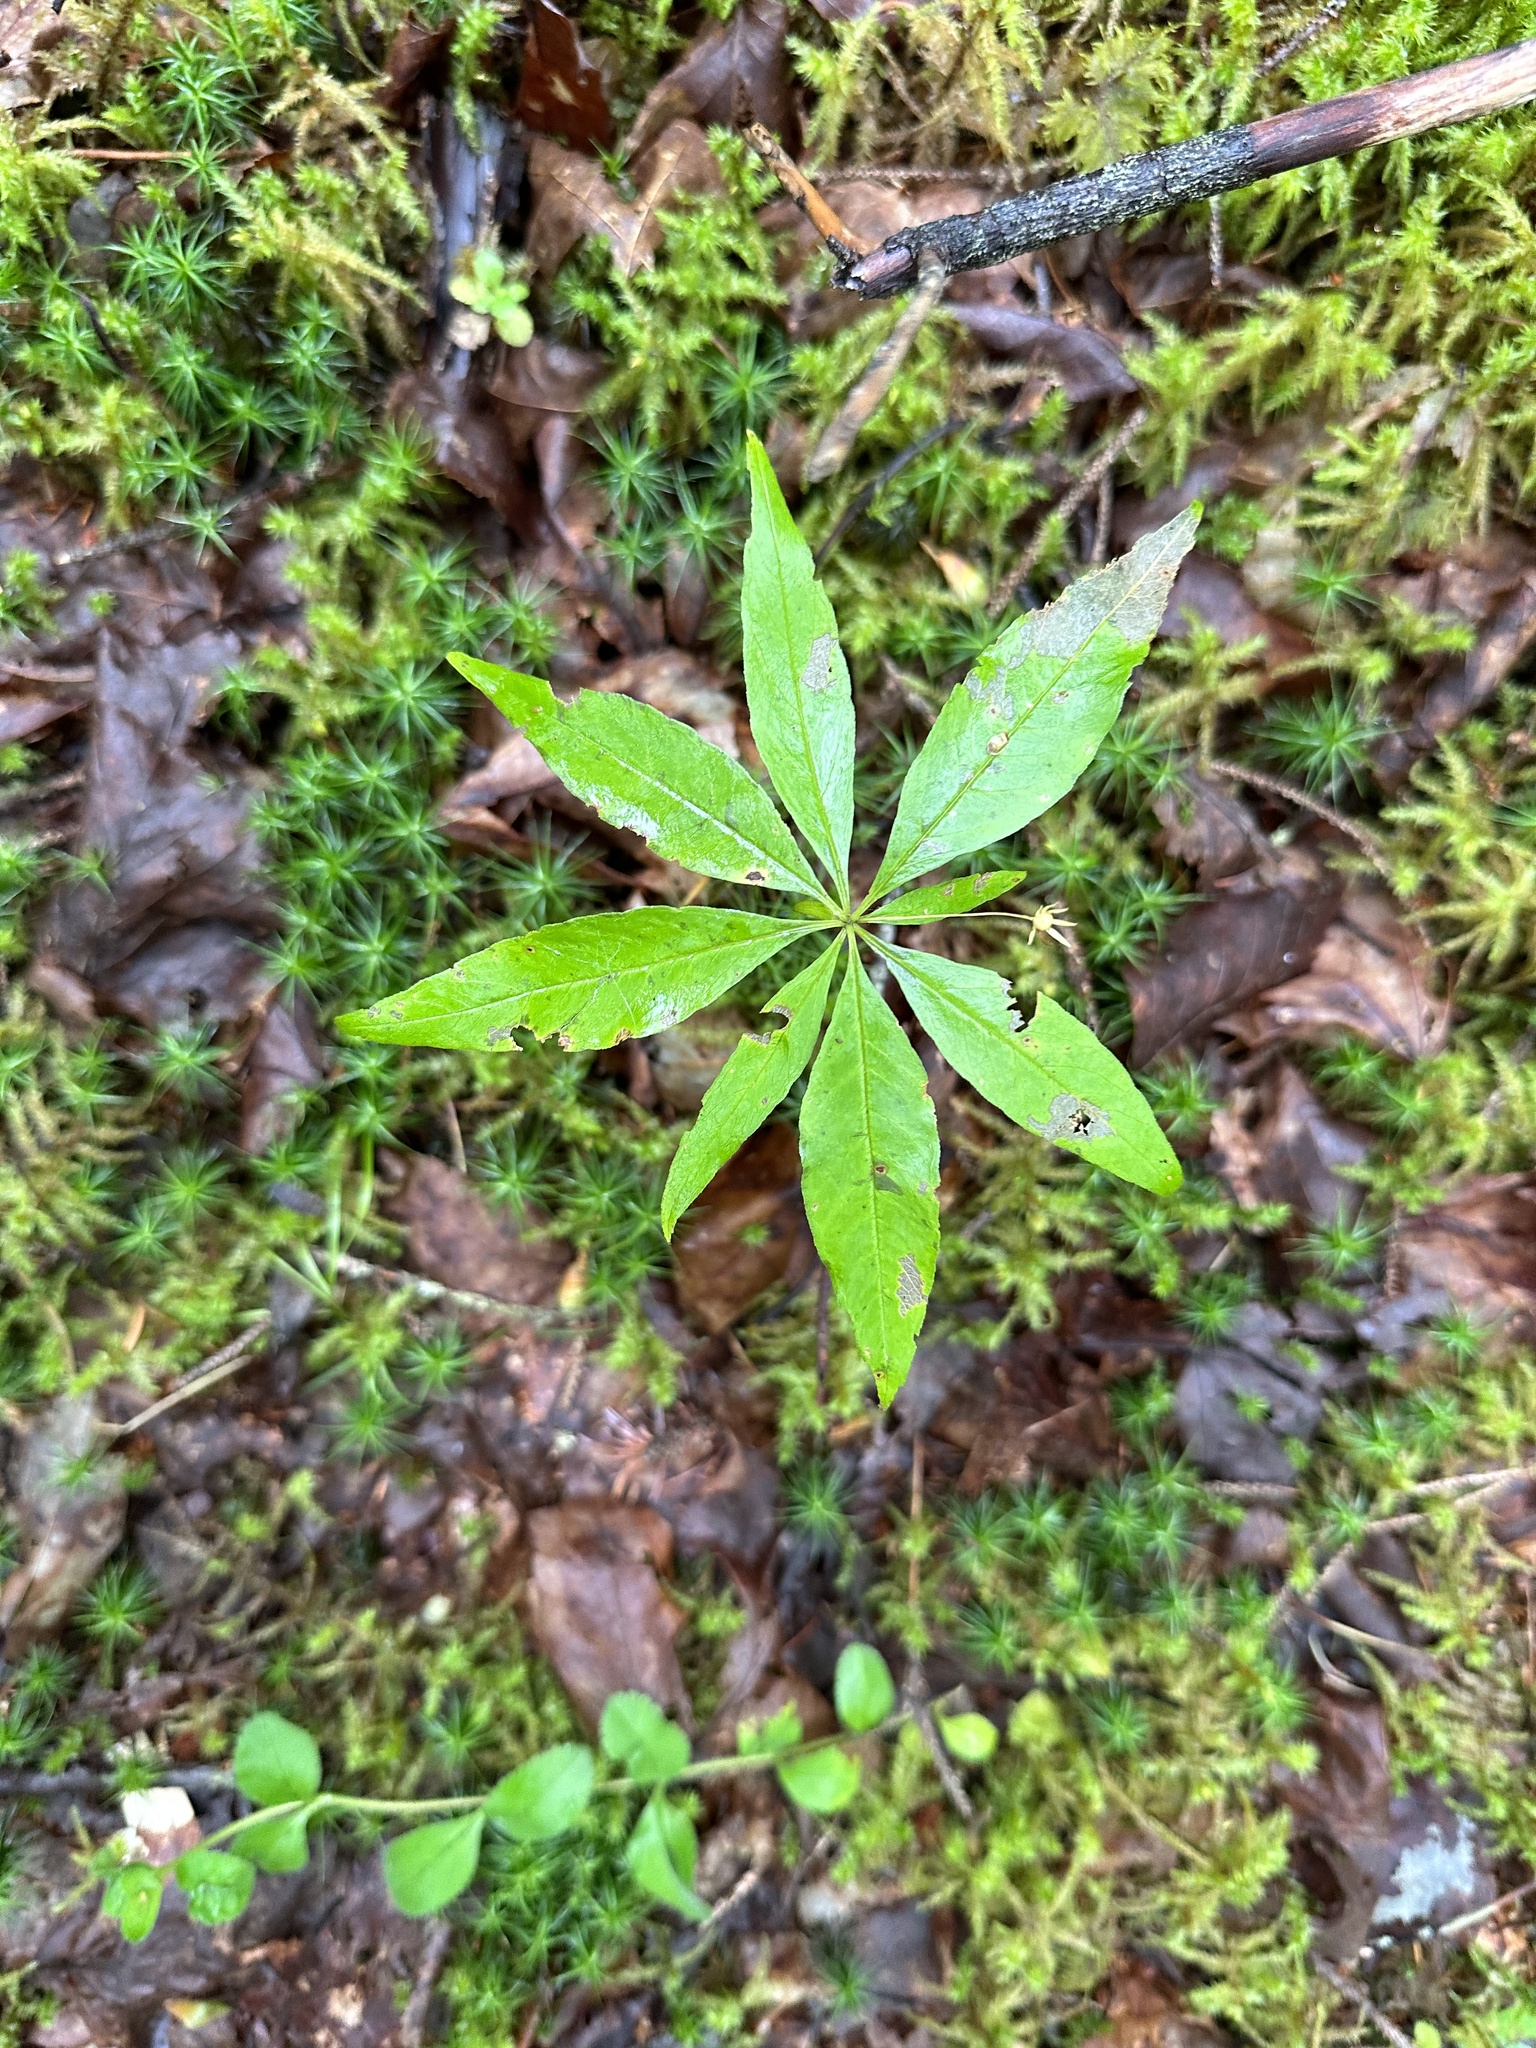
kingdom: Plantae
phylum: Tracheophyta
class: Magnoliopsida
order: Ericales
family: Primulaceae
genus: Lysimachia
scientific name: Lysimachia borealis
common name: American starflower
